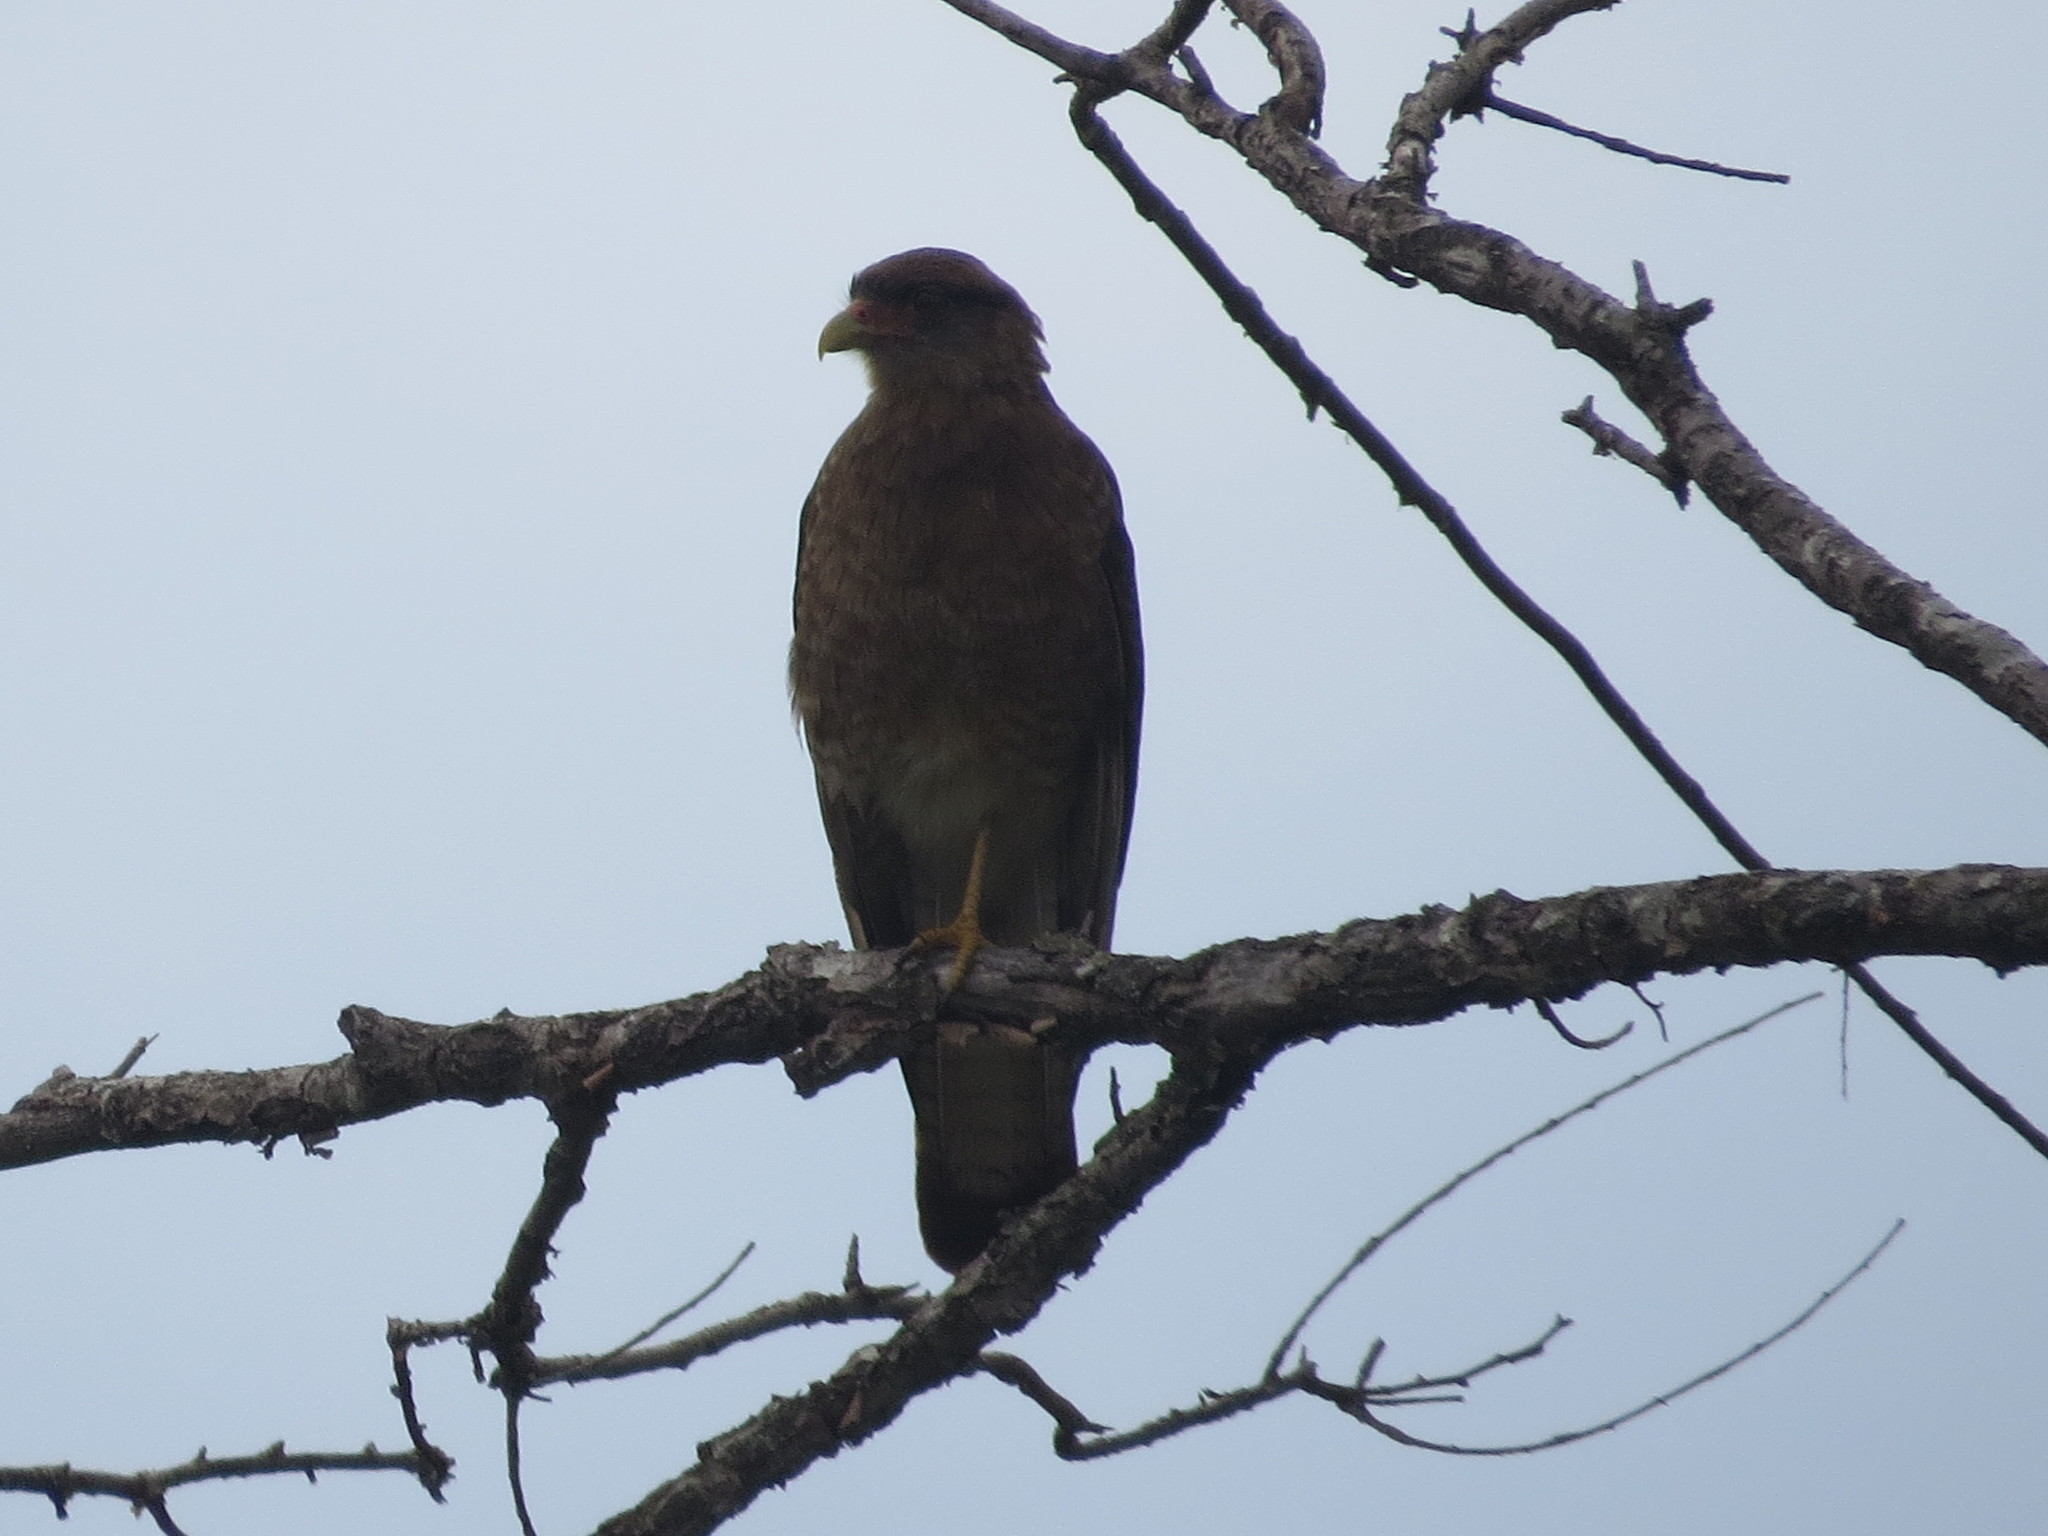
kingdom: Animalia
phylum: Chordata
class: Aves
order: Falconiformes
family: Falconidae
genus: Daptrius
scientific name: Daptrius
